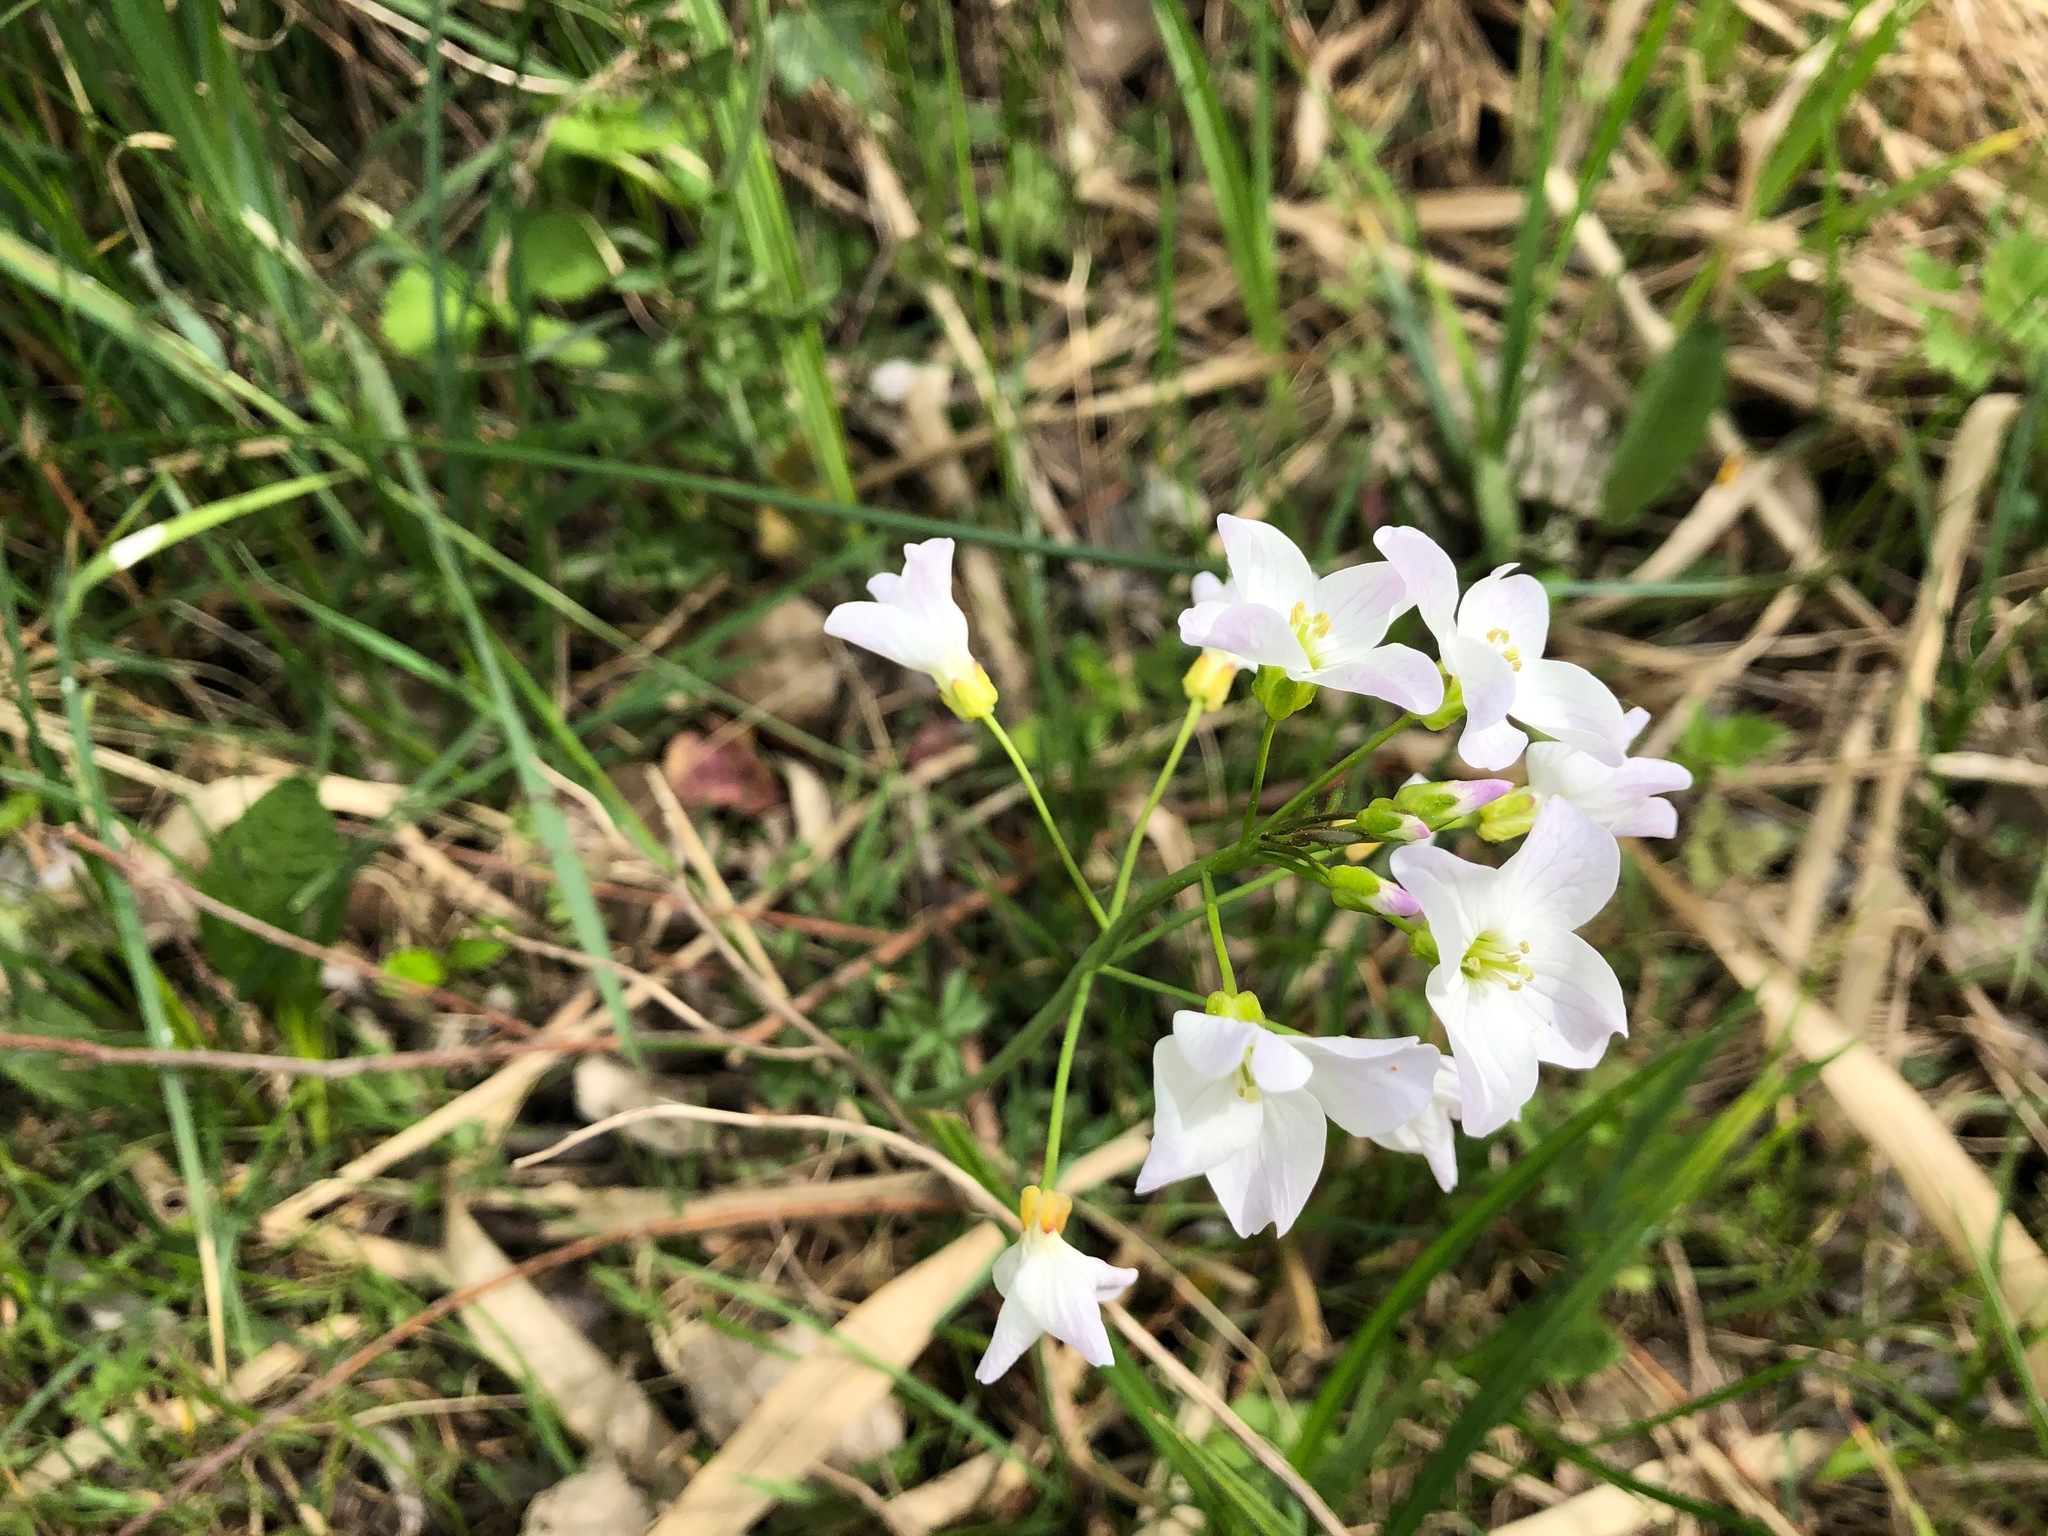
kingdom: Plantae
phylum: Tracheophyta
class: Magnoliopsida
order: Brassicales
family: Brassicaceae
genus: Cardamine
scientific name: Cardamine pratensis
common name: Cuckoo flower
